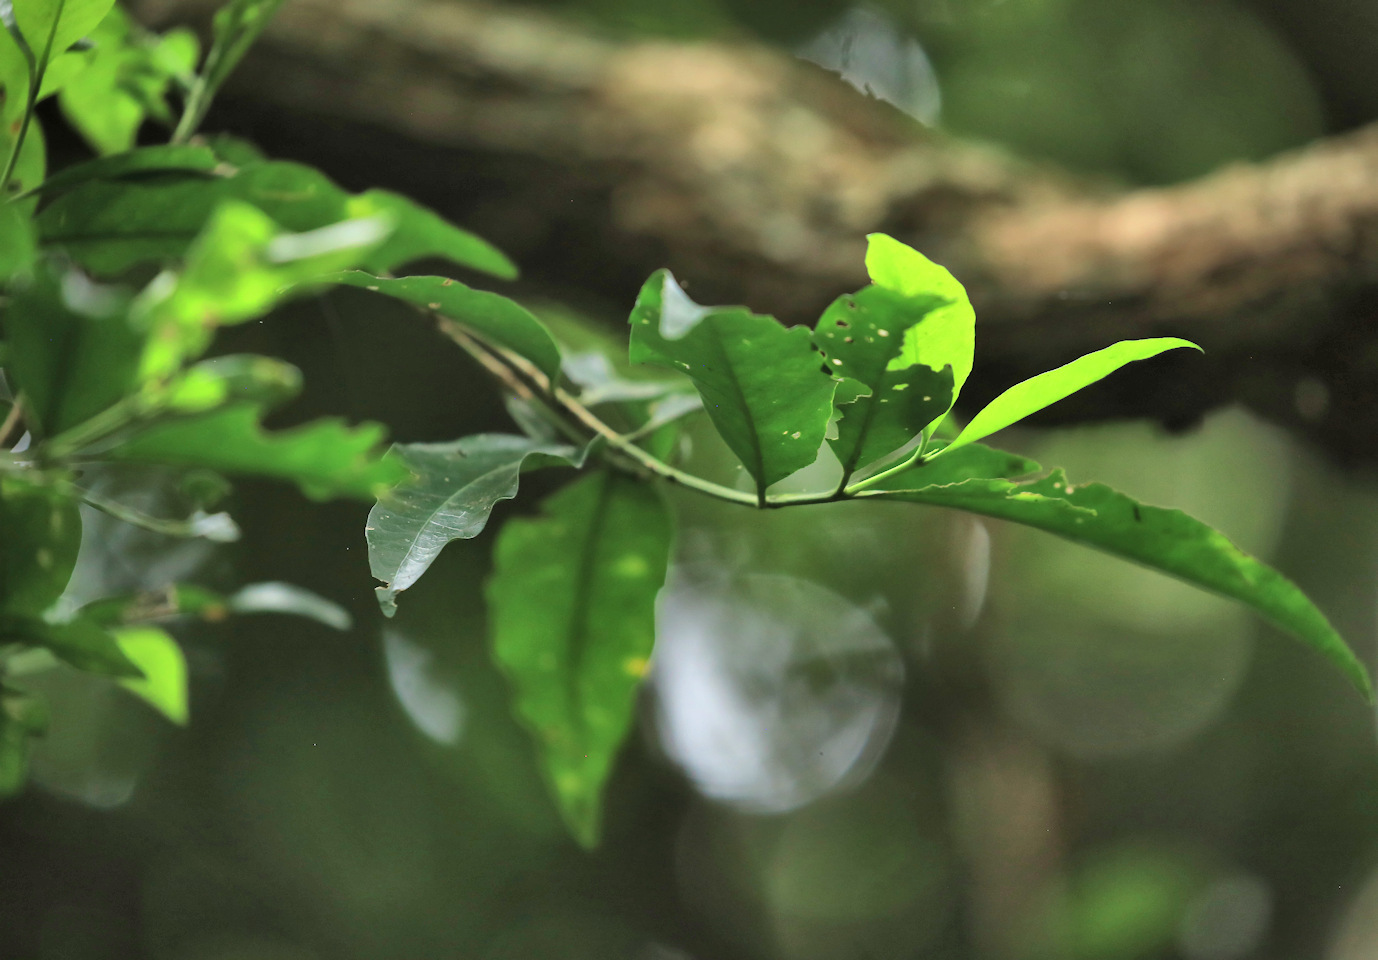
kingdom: Plantae
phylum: Tracheophyta
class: Magnoliopsida
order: Gentianales
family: Rubiaceae
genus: Empogona
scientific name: Empogona lanceolata
